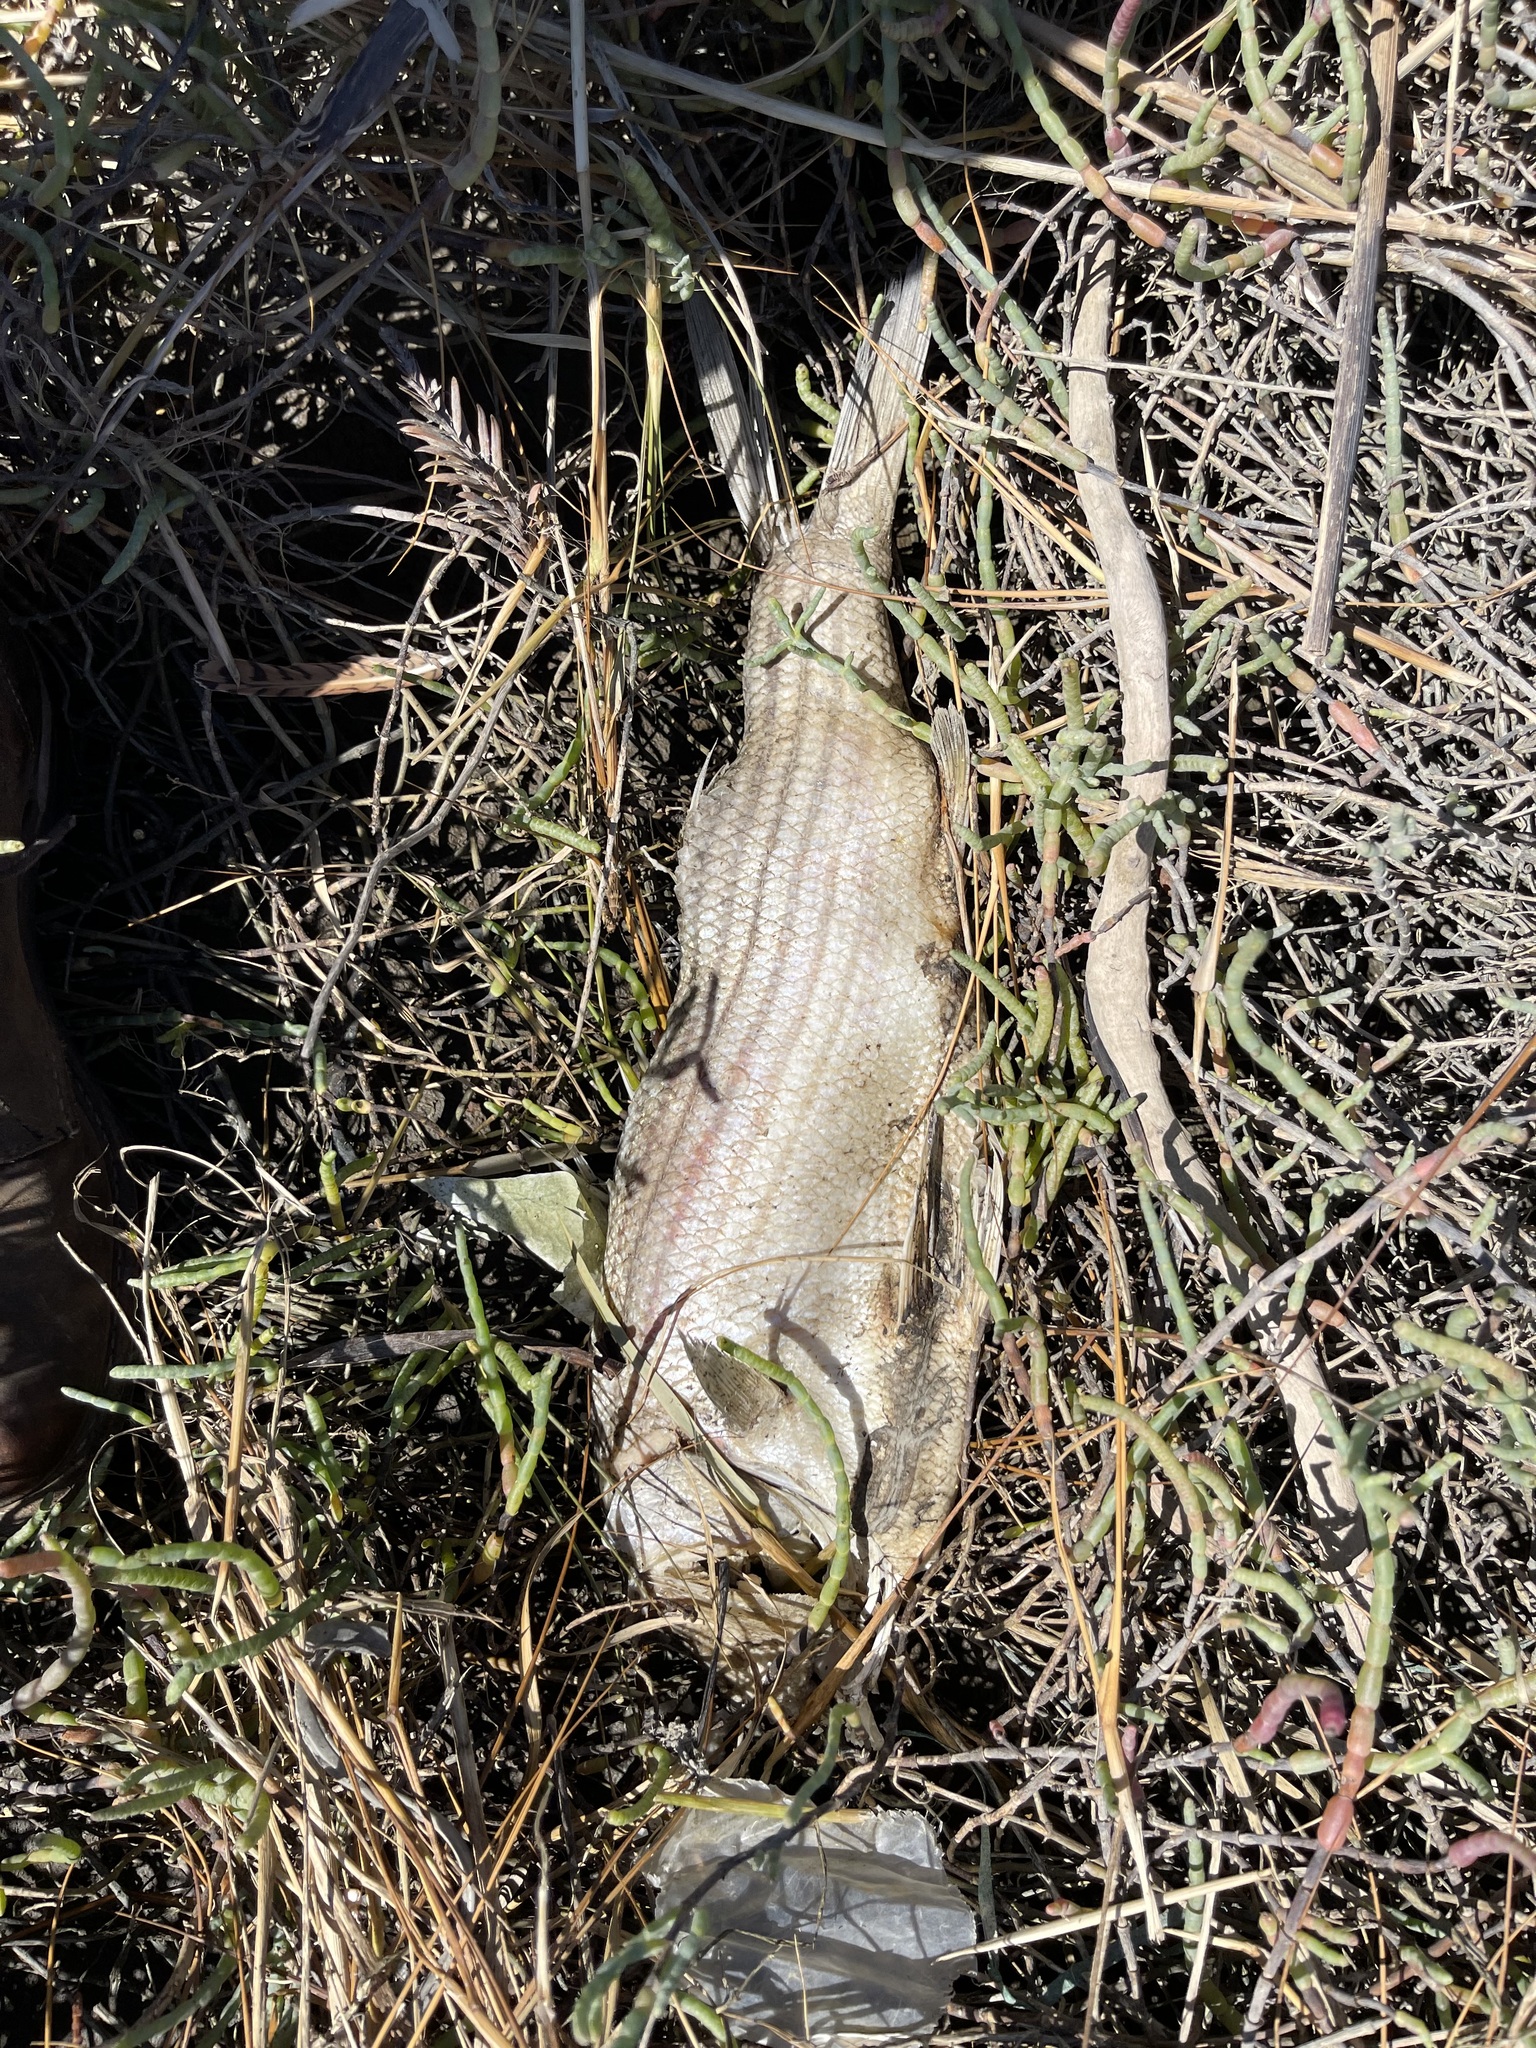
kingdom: Animalia
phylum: Chordata
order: Perciformes
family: Moronidae
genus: Morone
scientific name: Morone saxatilis
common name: Striped bass
